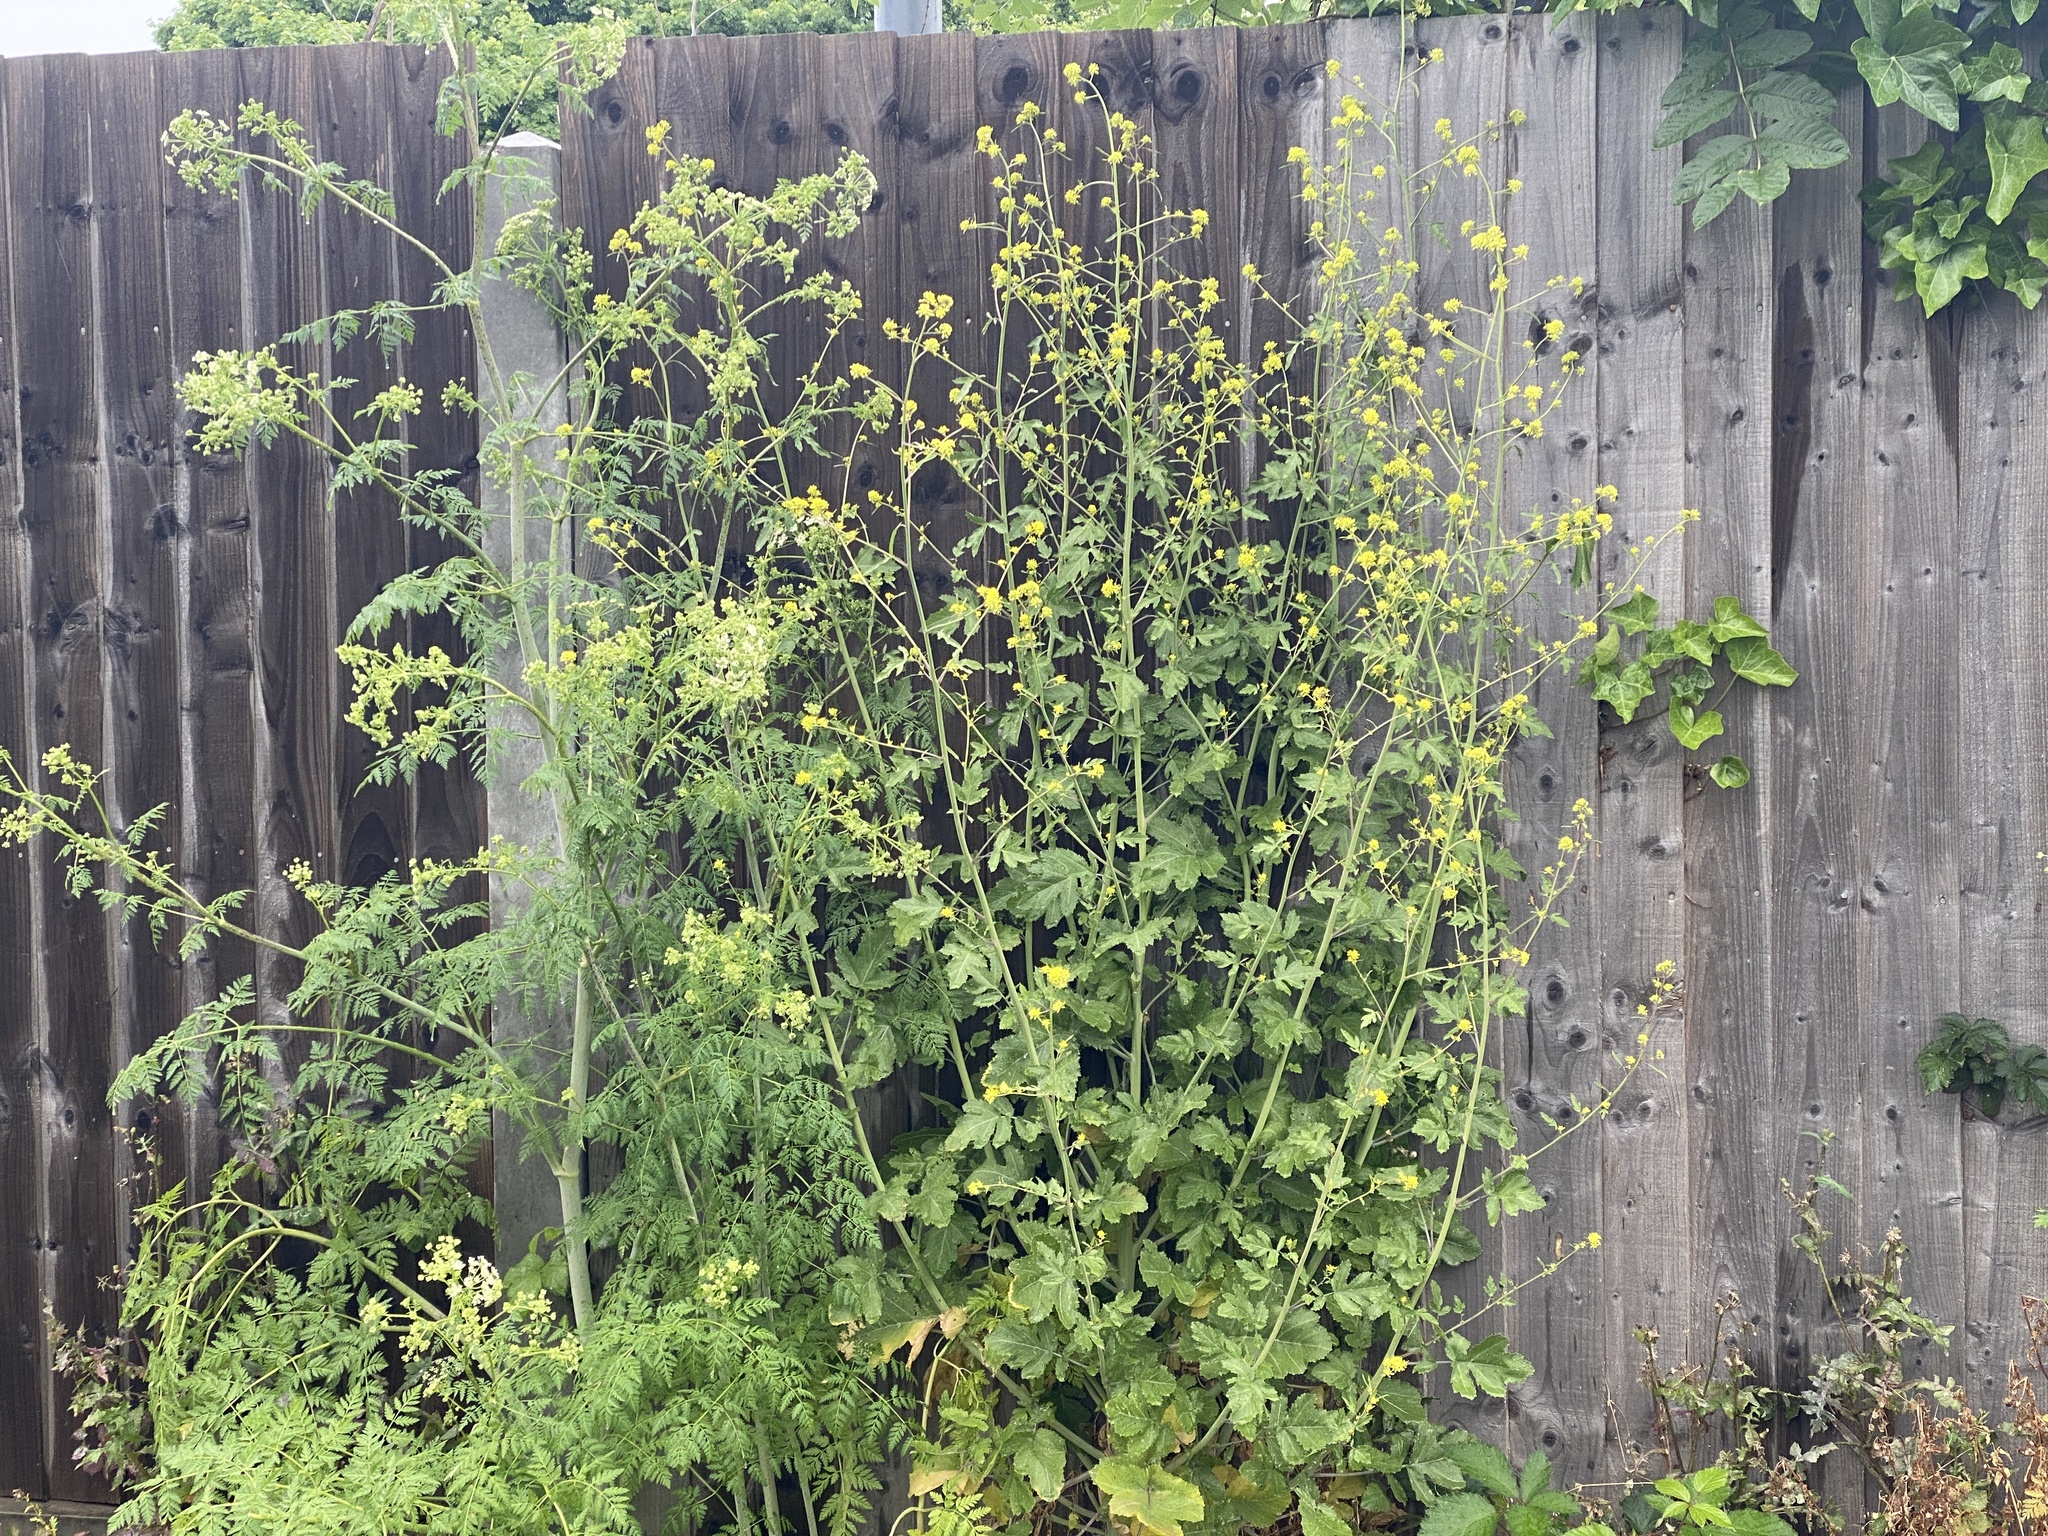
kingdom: Plantae
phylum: Tracheophyta
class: Magnoliopsida
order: Brassicales
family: Brassicaceae
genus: Brassica
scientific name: Brassica nigra
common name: Black mustard
